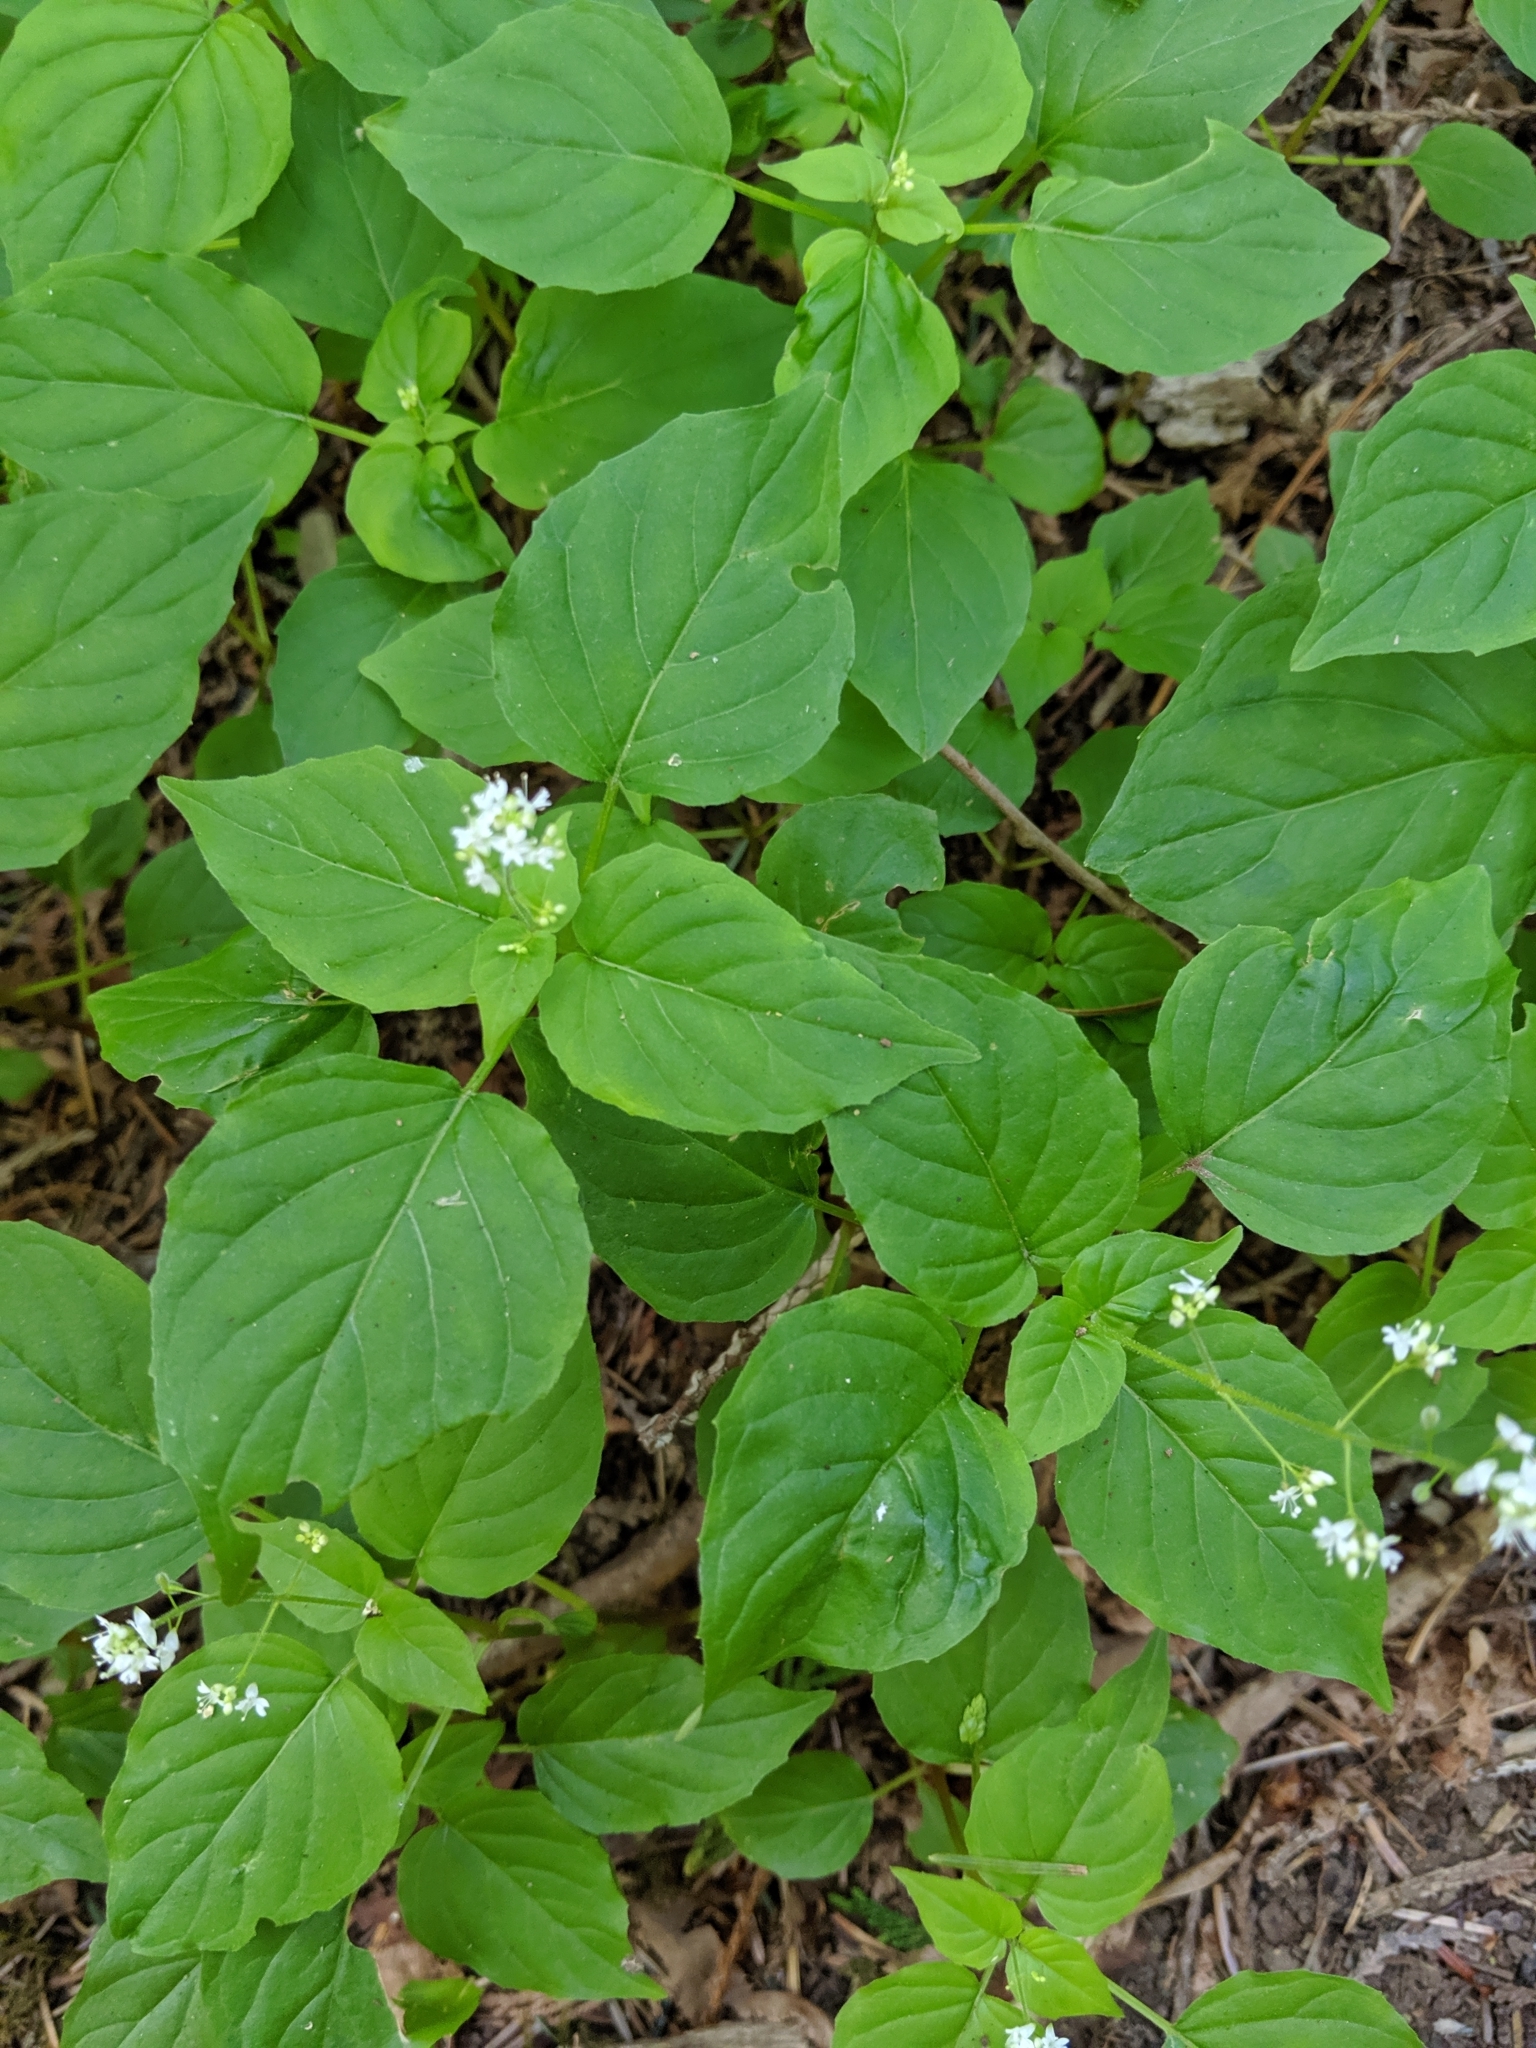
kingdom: Plantae
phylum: Tracheophyta
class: Magnoliopsida
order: Myrtales
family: Onagraceae
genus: Circaea
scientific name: Circaea alpina
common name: Alpine enchanter's-nightshade
